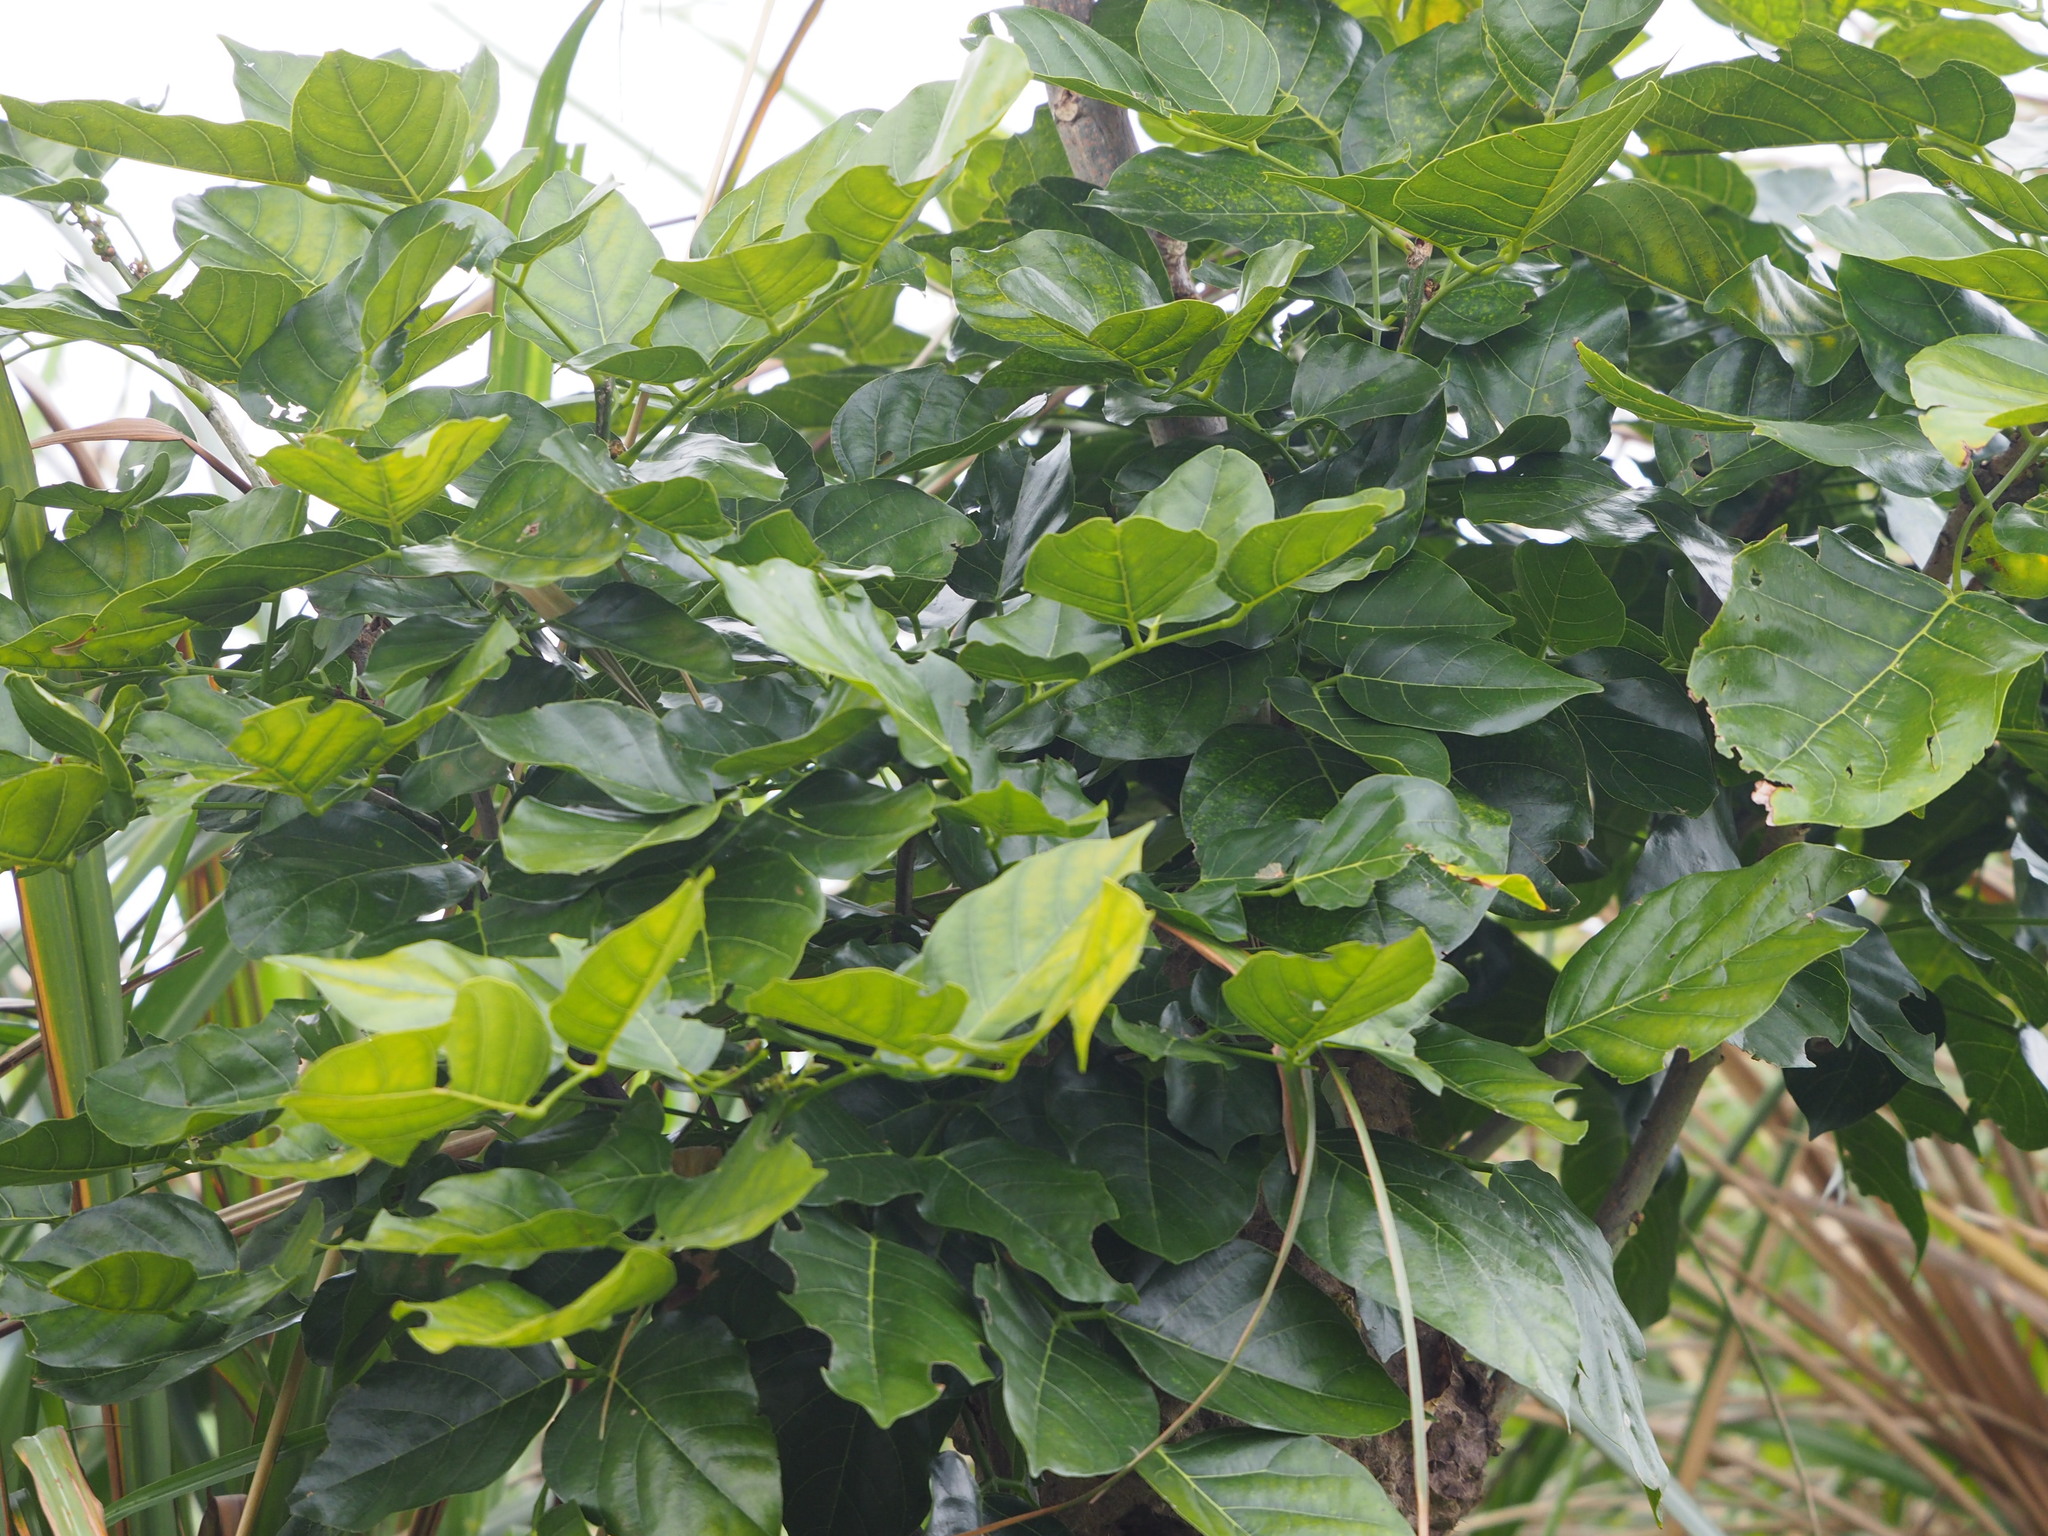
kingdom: Plantae
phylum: Tracheophyta
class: Magnoliopsida
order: Fabales
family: Fabaceae
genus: Pongamia
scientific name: Pongamia pinnata
